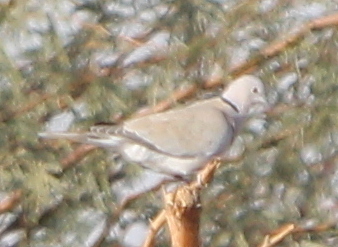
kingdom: Animalia
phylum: Chordata
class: Aves
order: Columbiformes
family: Columbidae
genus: Streptopelia
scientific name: Streptopelia decaocto
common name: Eurasian collared dove
